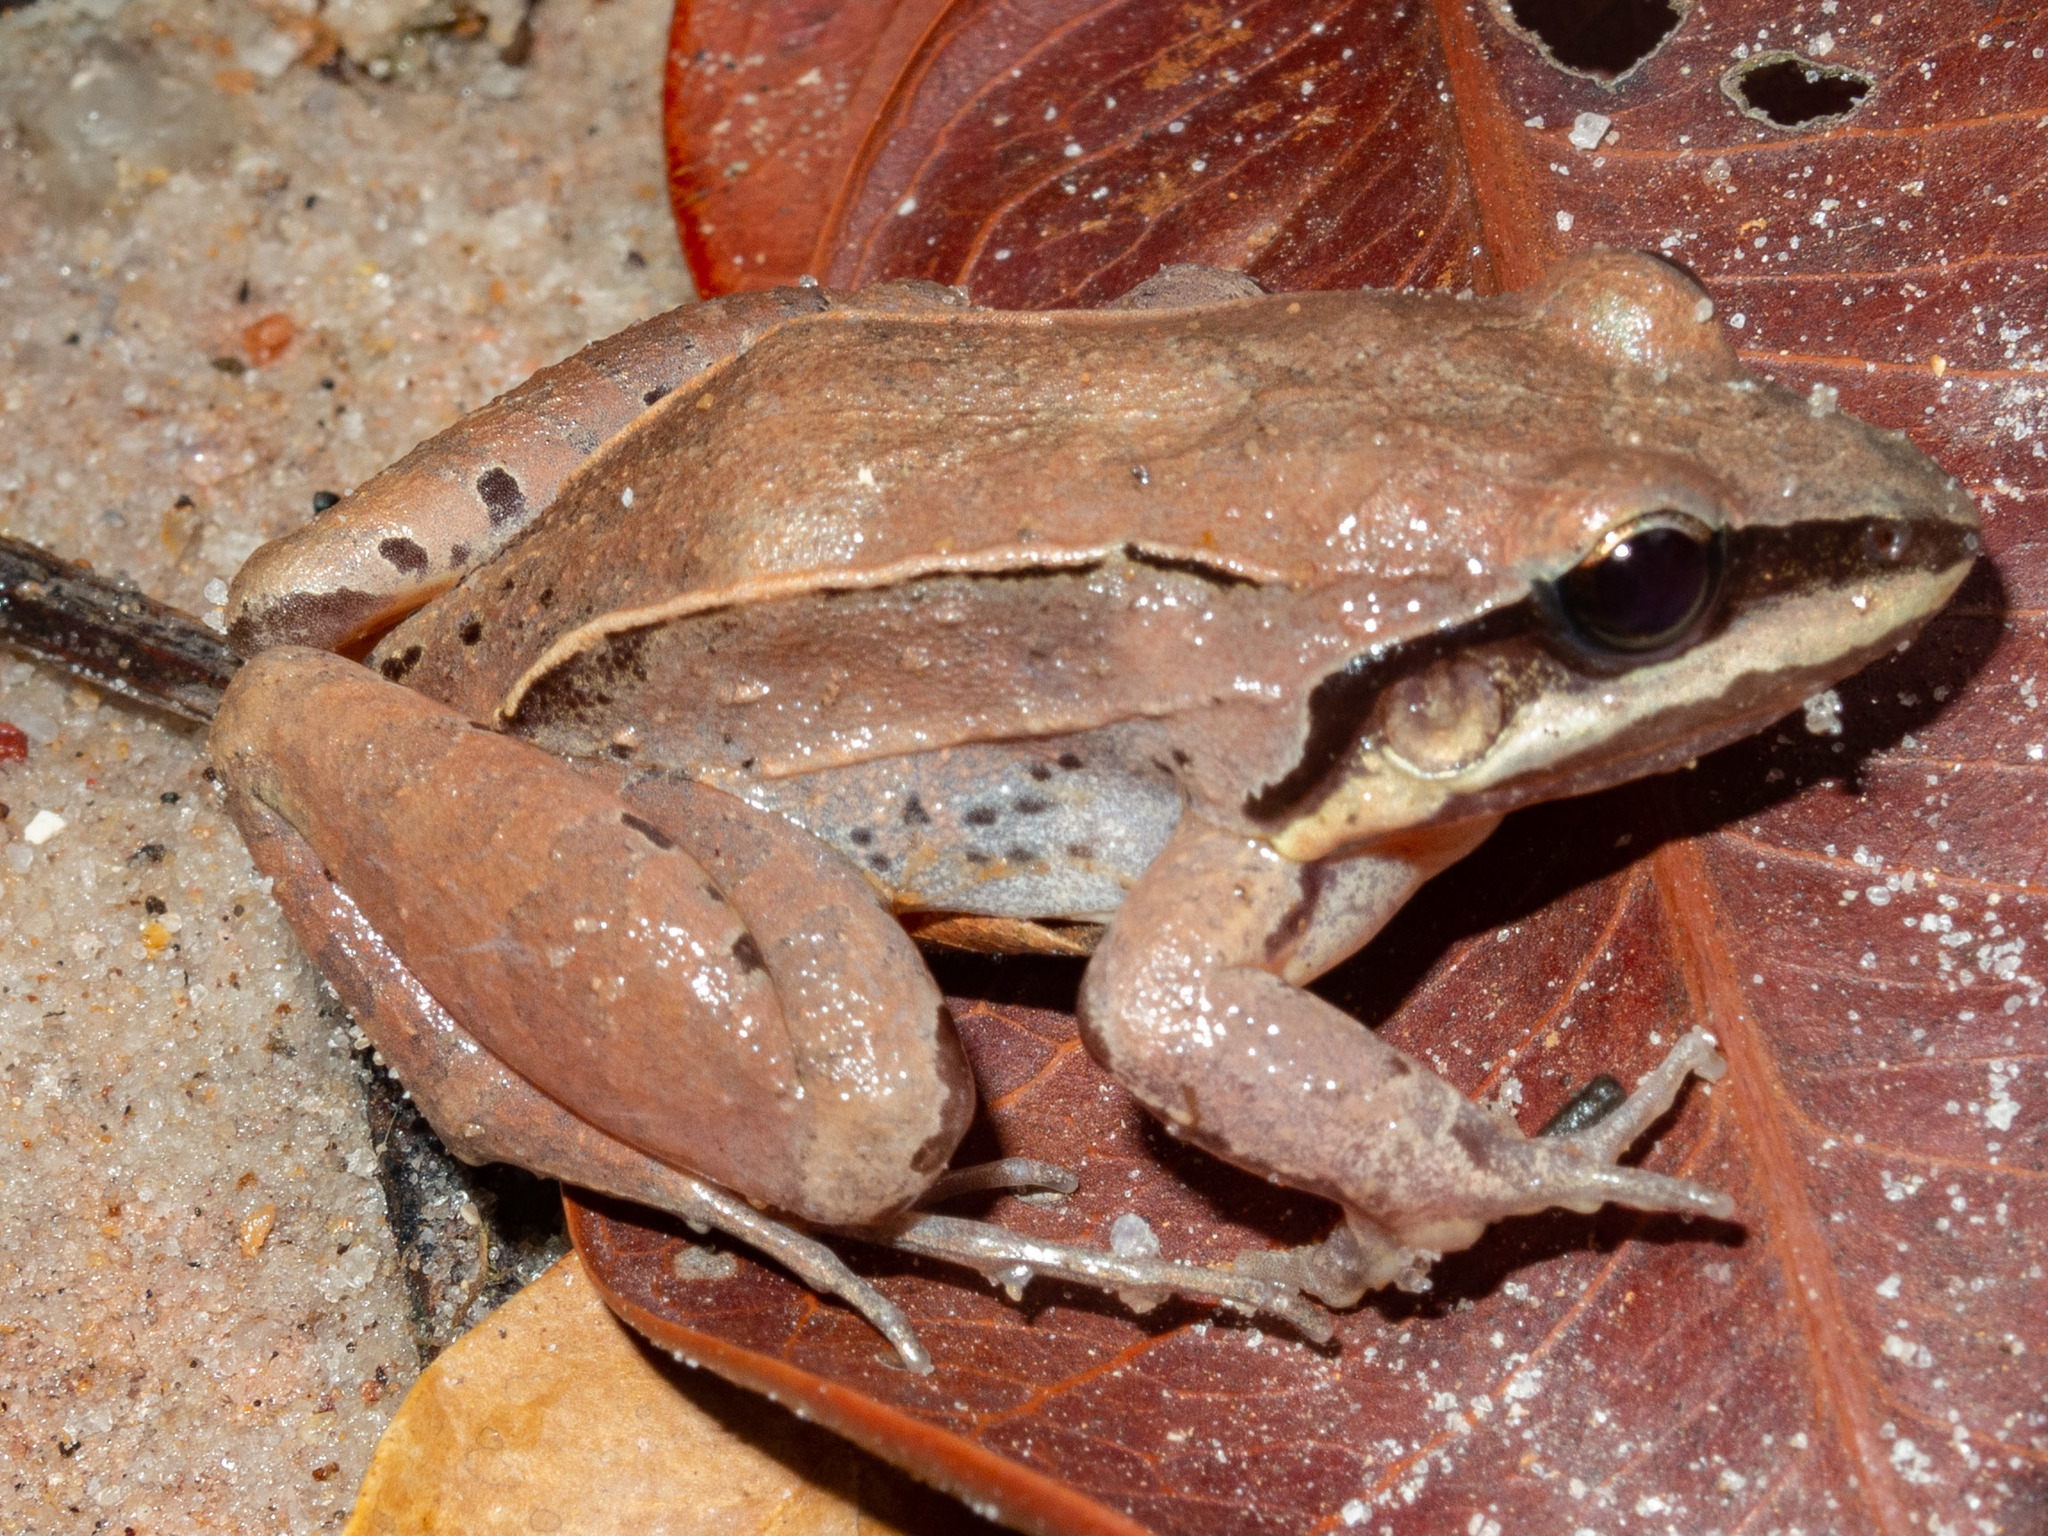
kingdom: Animalia
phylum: Chordata
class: Amphibia
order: Anura
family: Leptodactylidae
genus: Leptodactylus
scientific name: Leptodactylus mystaceus
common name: Amazonian white-lipped frog
